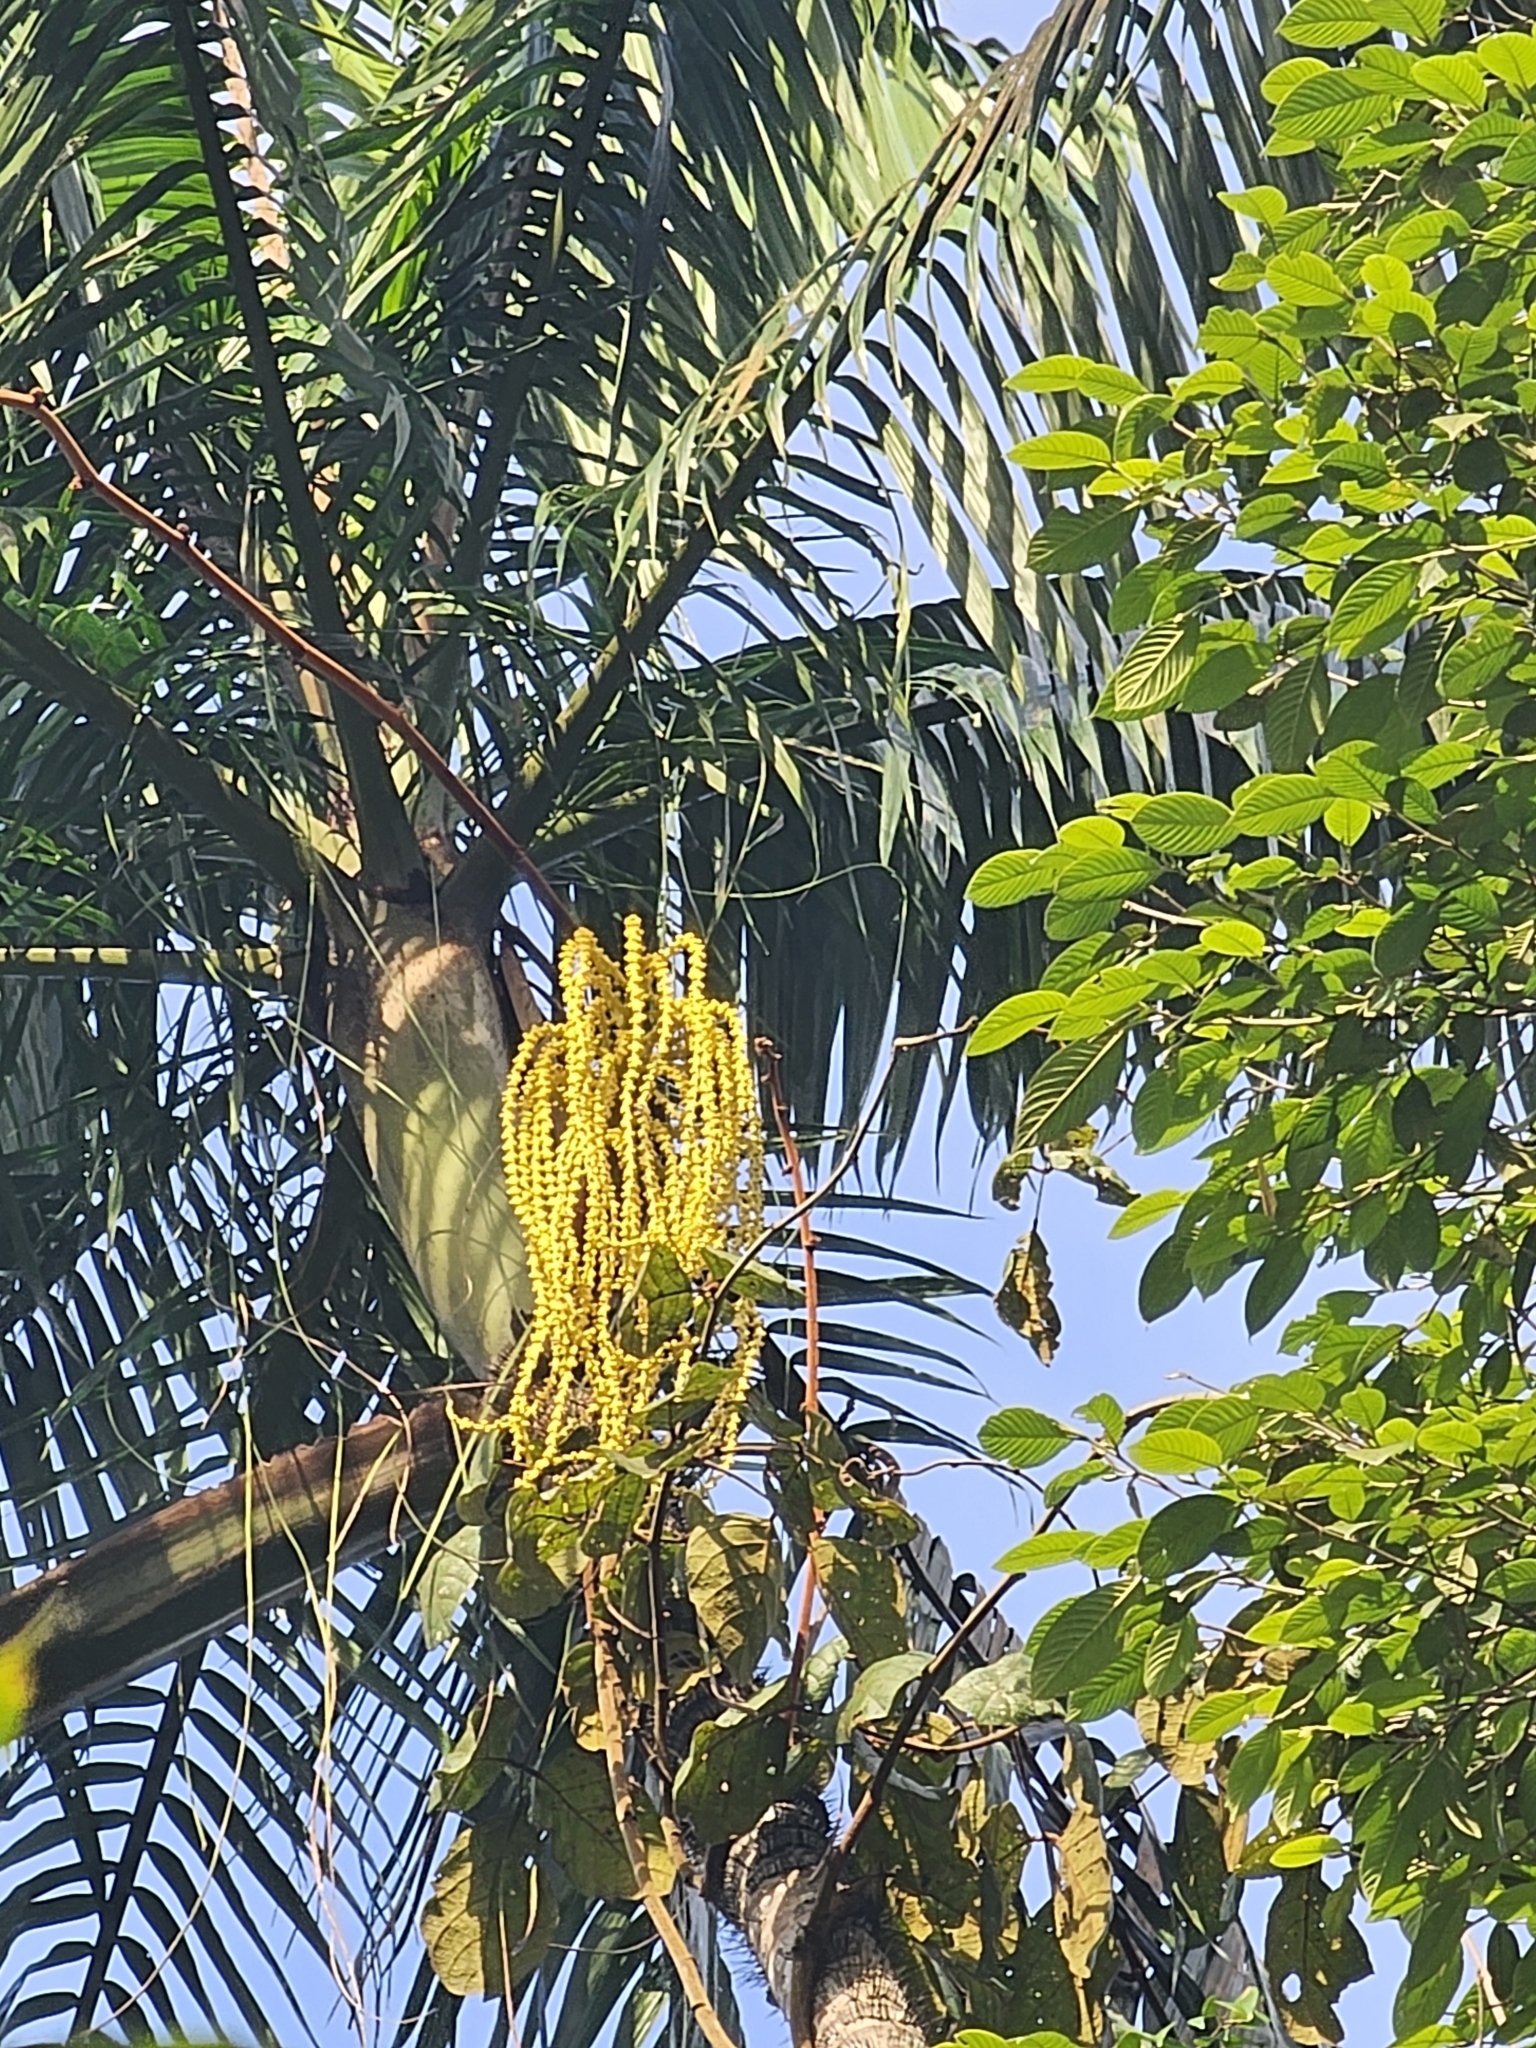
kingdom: Plantae
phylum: Tracheophyta
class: Liliopsida
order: Arecales
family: Arecaceae
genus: Oncosperma
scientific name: Oncosperma horridum
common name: Thorny palm
